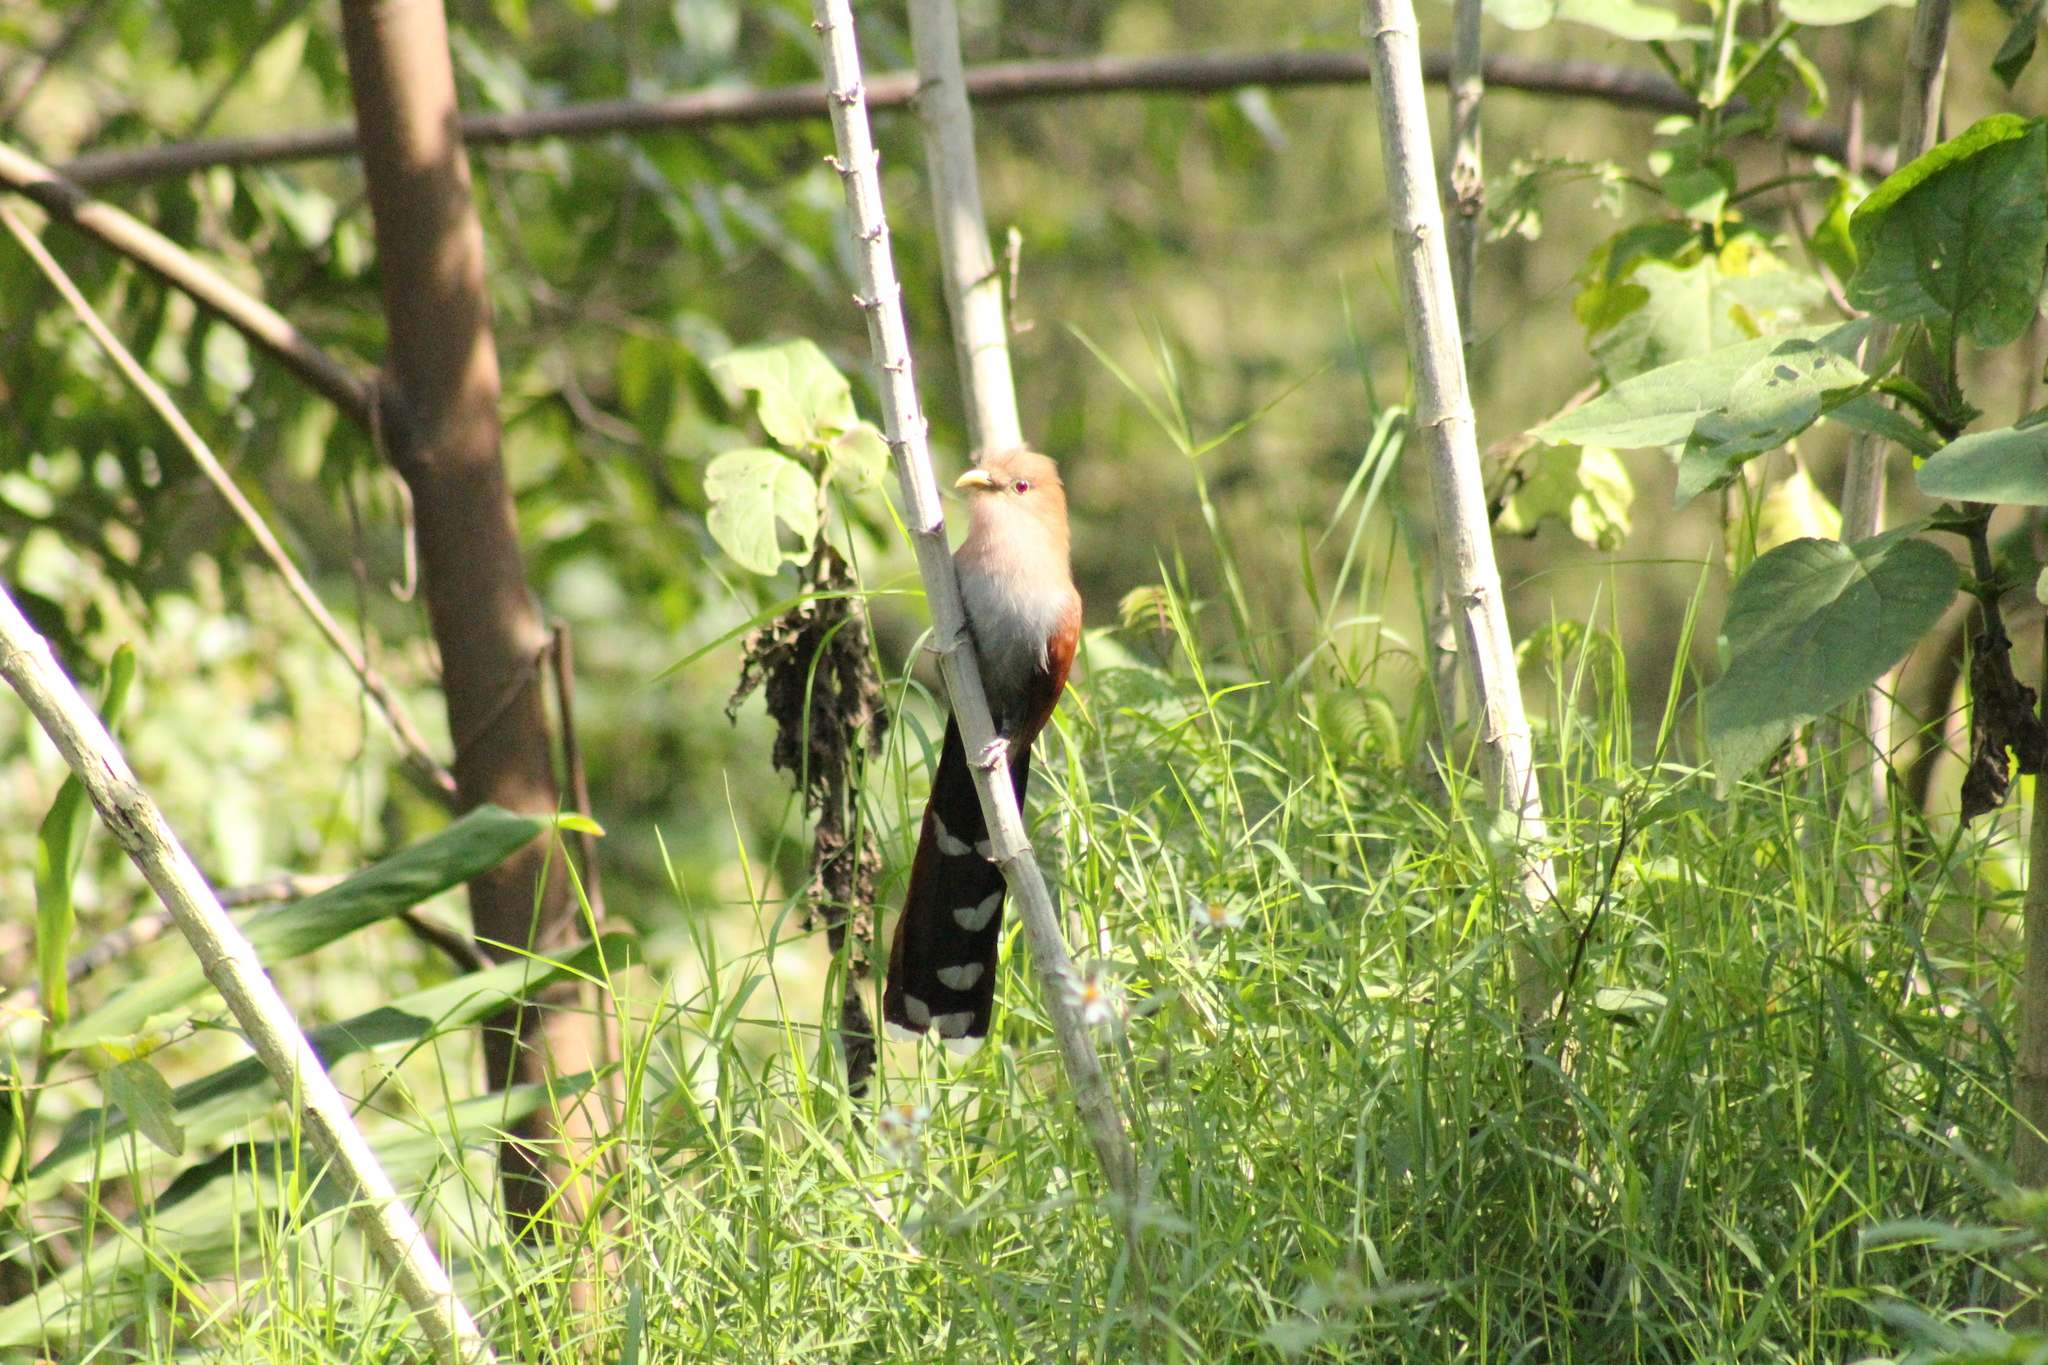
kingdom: Animalia
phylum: Chordata
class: Aves
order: Cuculiformes
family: Cuculidae
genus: Piaya
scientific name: Piaya cayana
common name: Squirrel cuckoo
